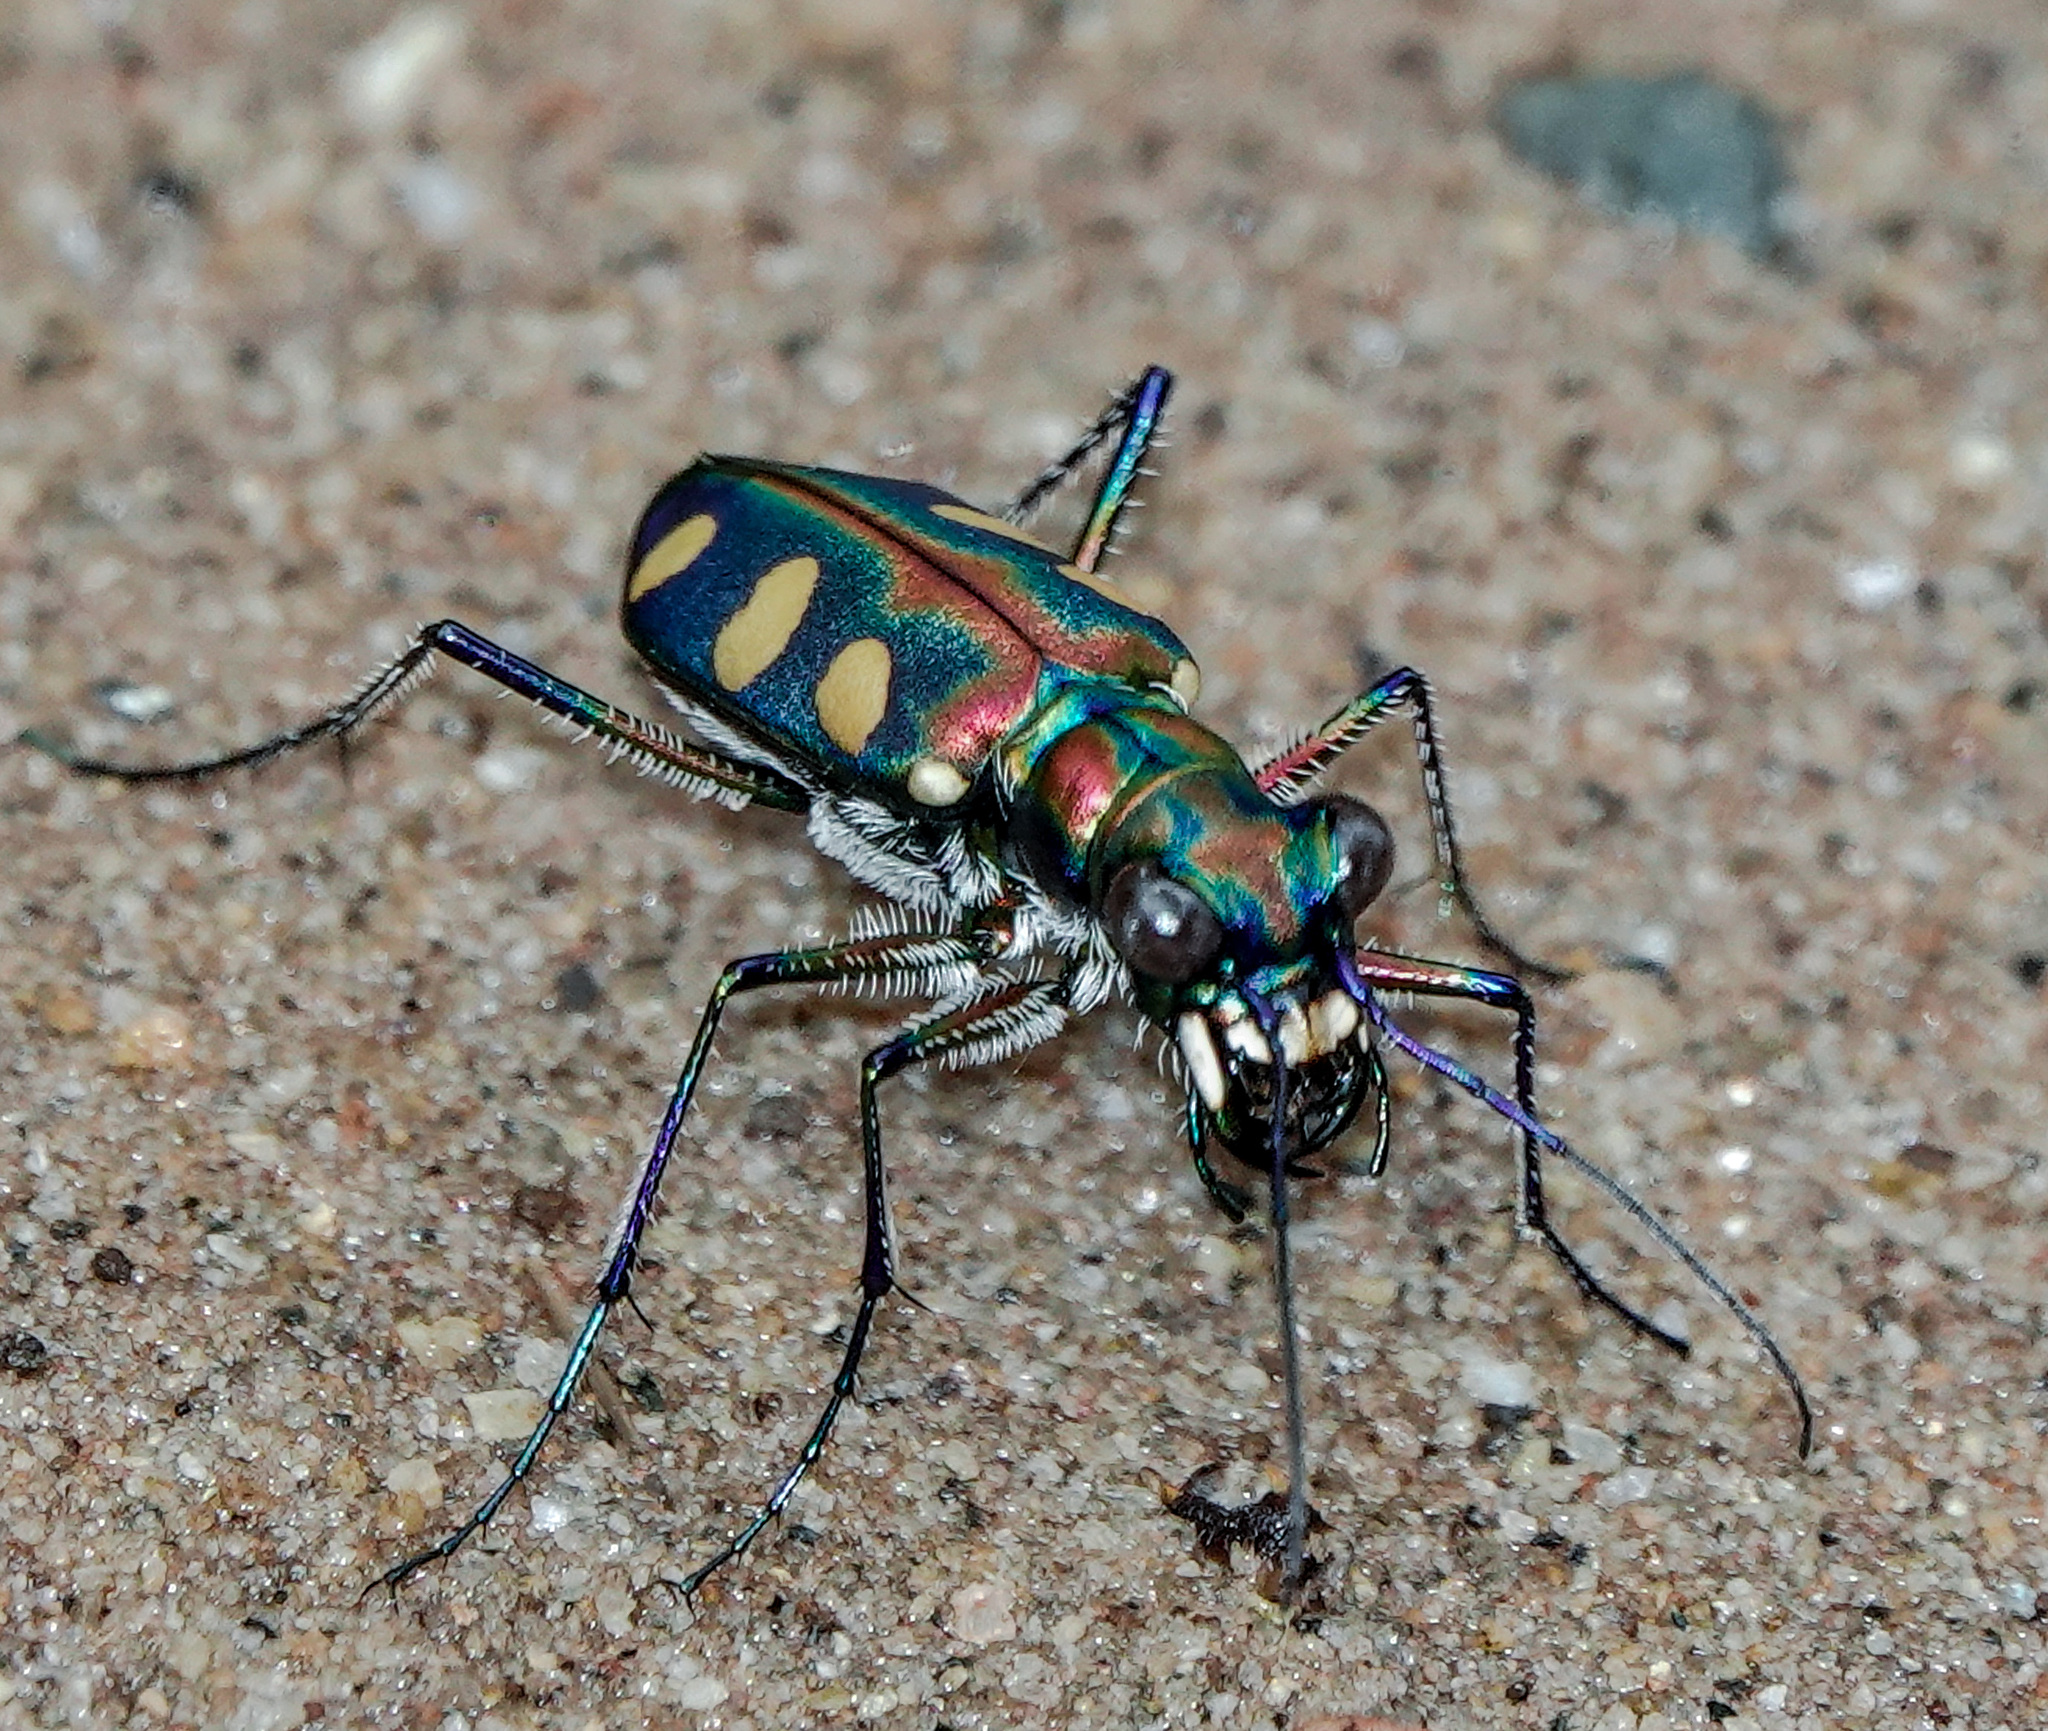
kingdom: Animalia
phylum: Arthropoda
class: Insecta
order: Coleoptera
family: Carabidae
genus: Cicindela
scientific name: Cicindela aurulenta
